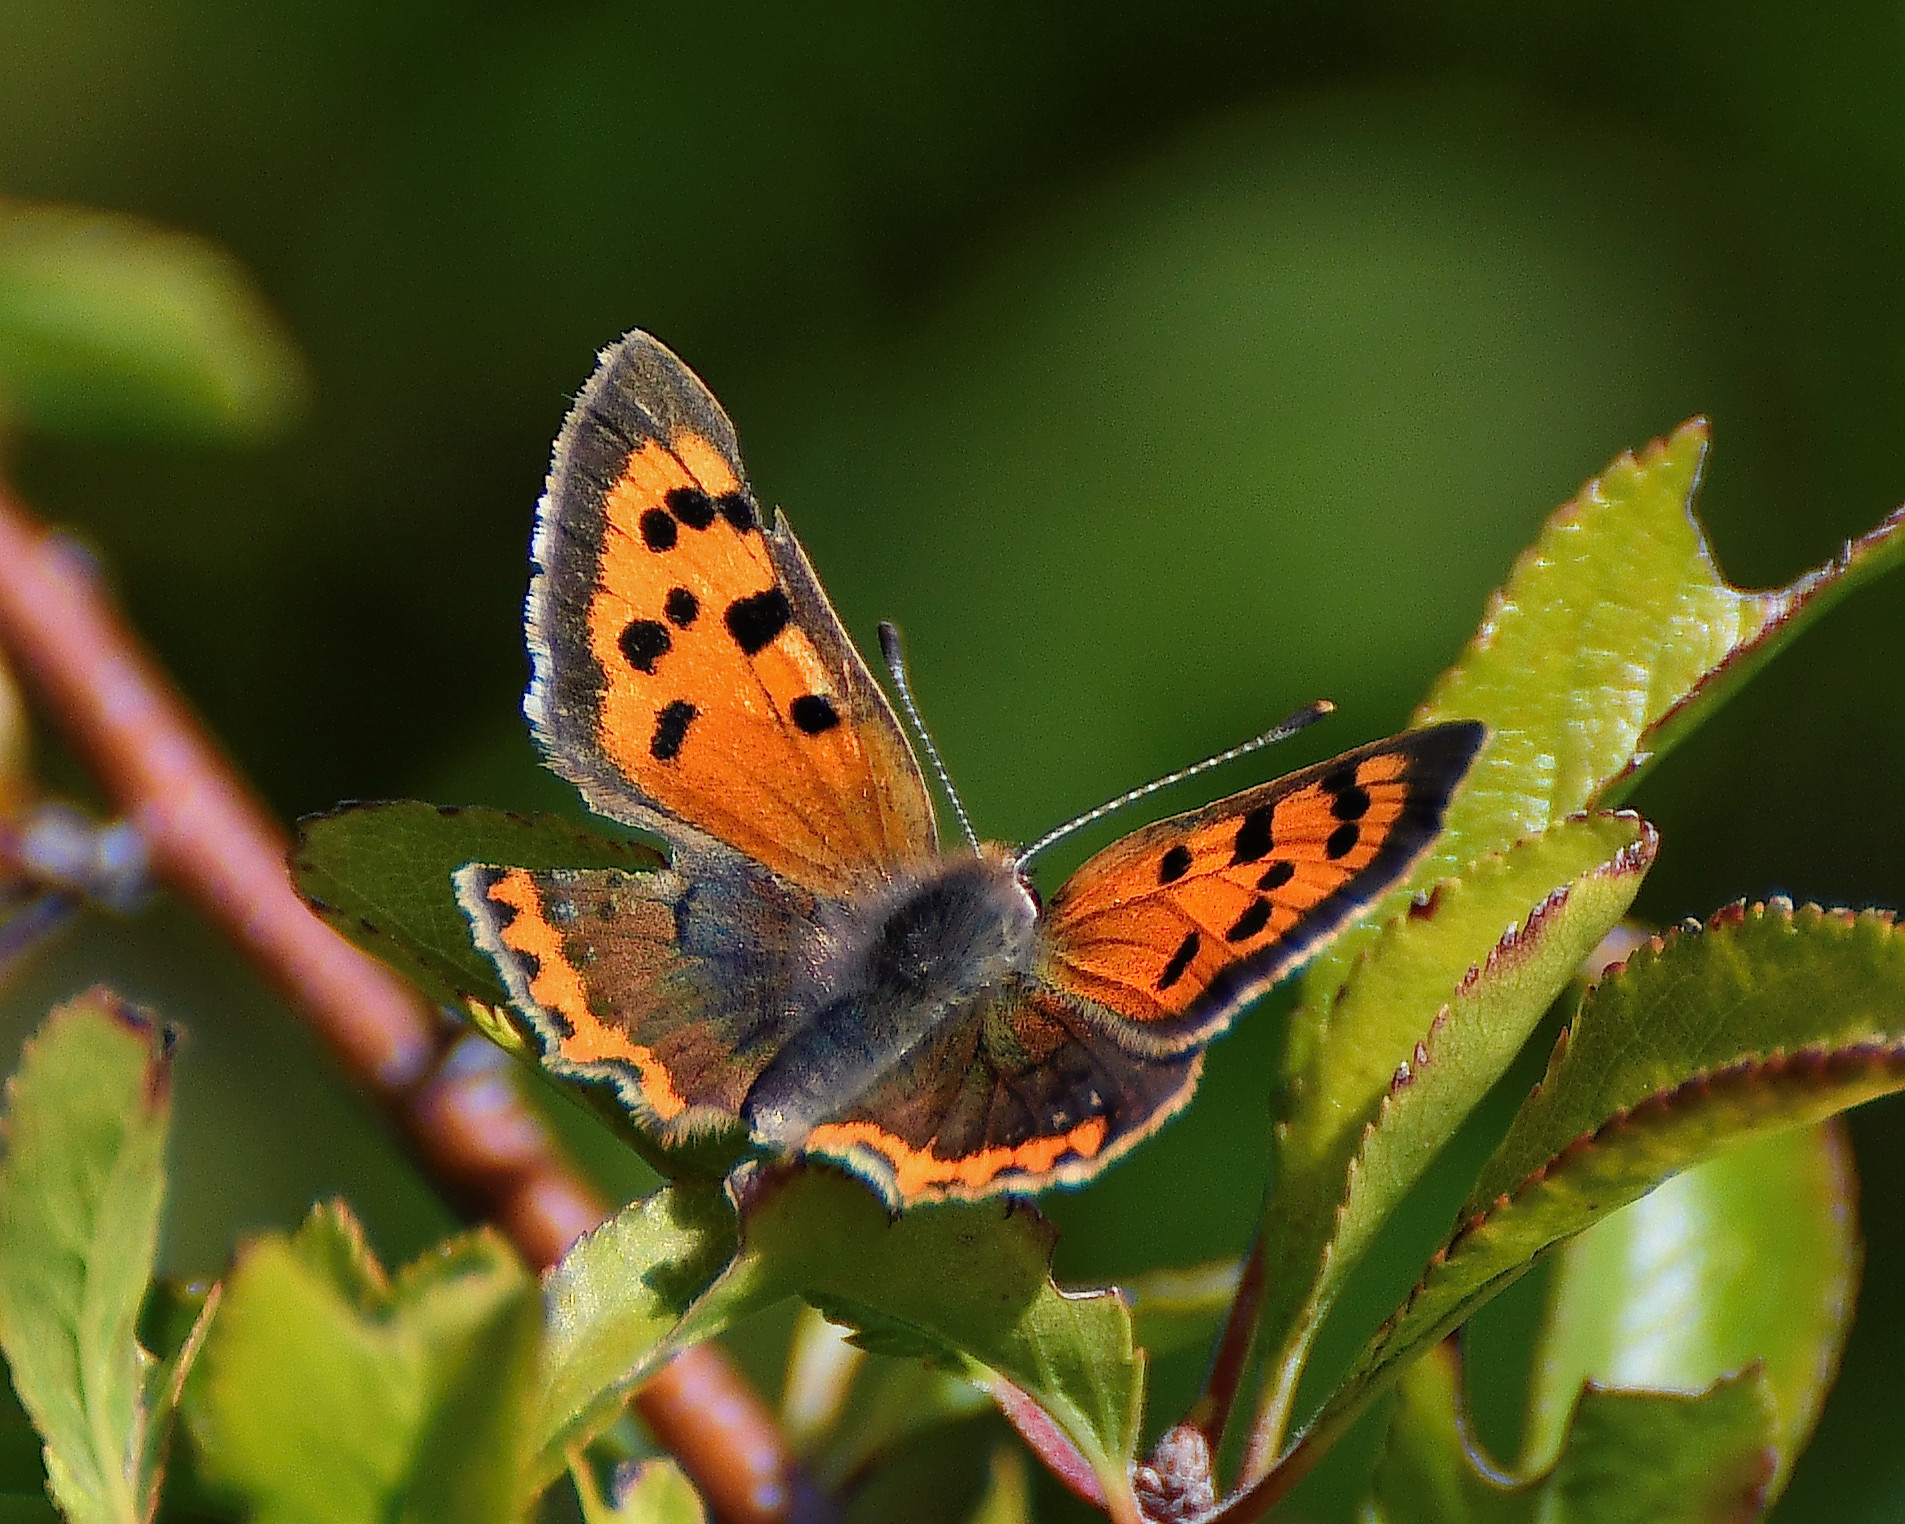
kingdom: Animalia
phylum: Arthropoda
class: Insecta
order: Lepidoptera
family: Lycaenidae
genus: Lycaena
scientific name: Lycaena phlaeas
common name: Small copper
